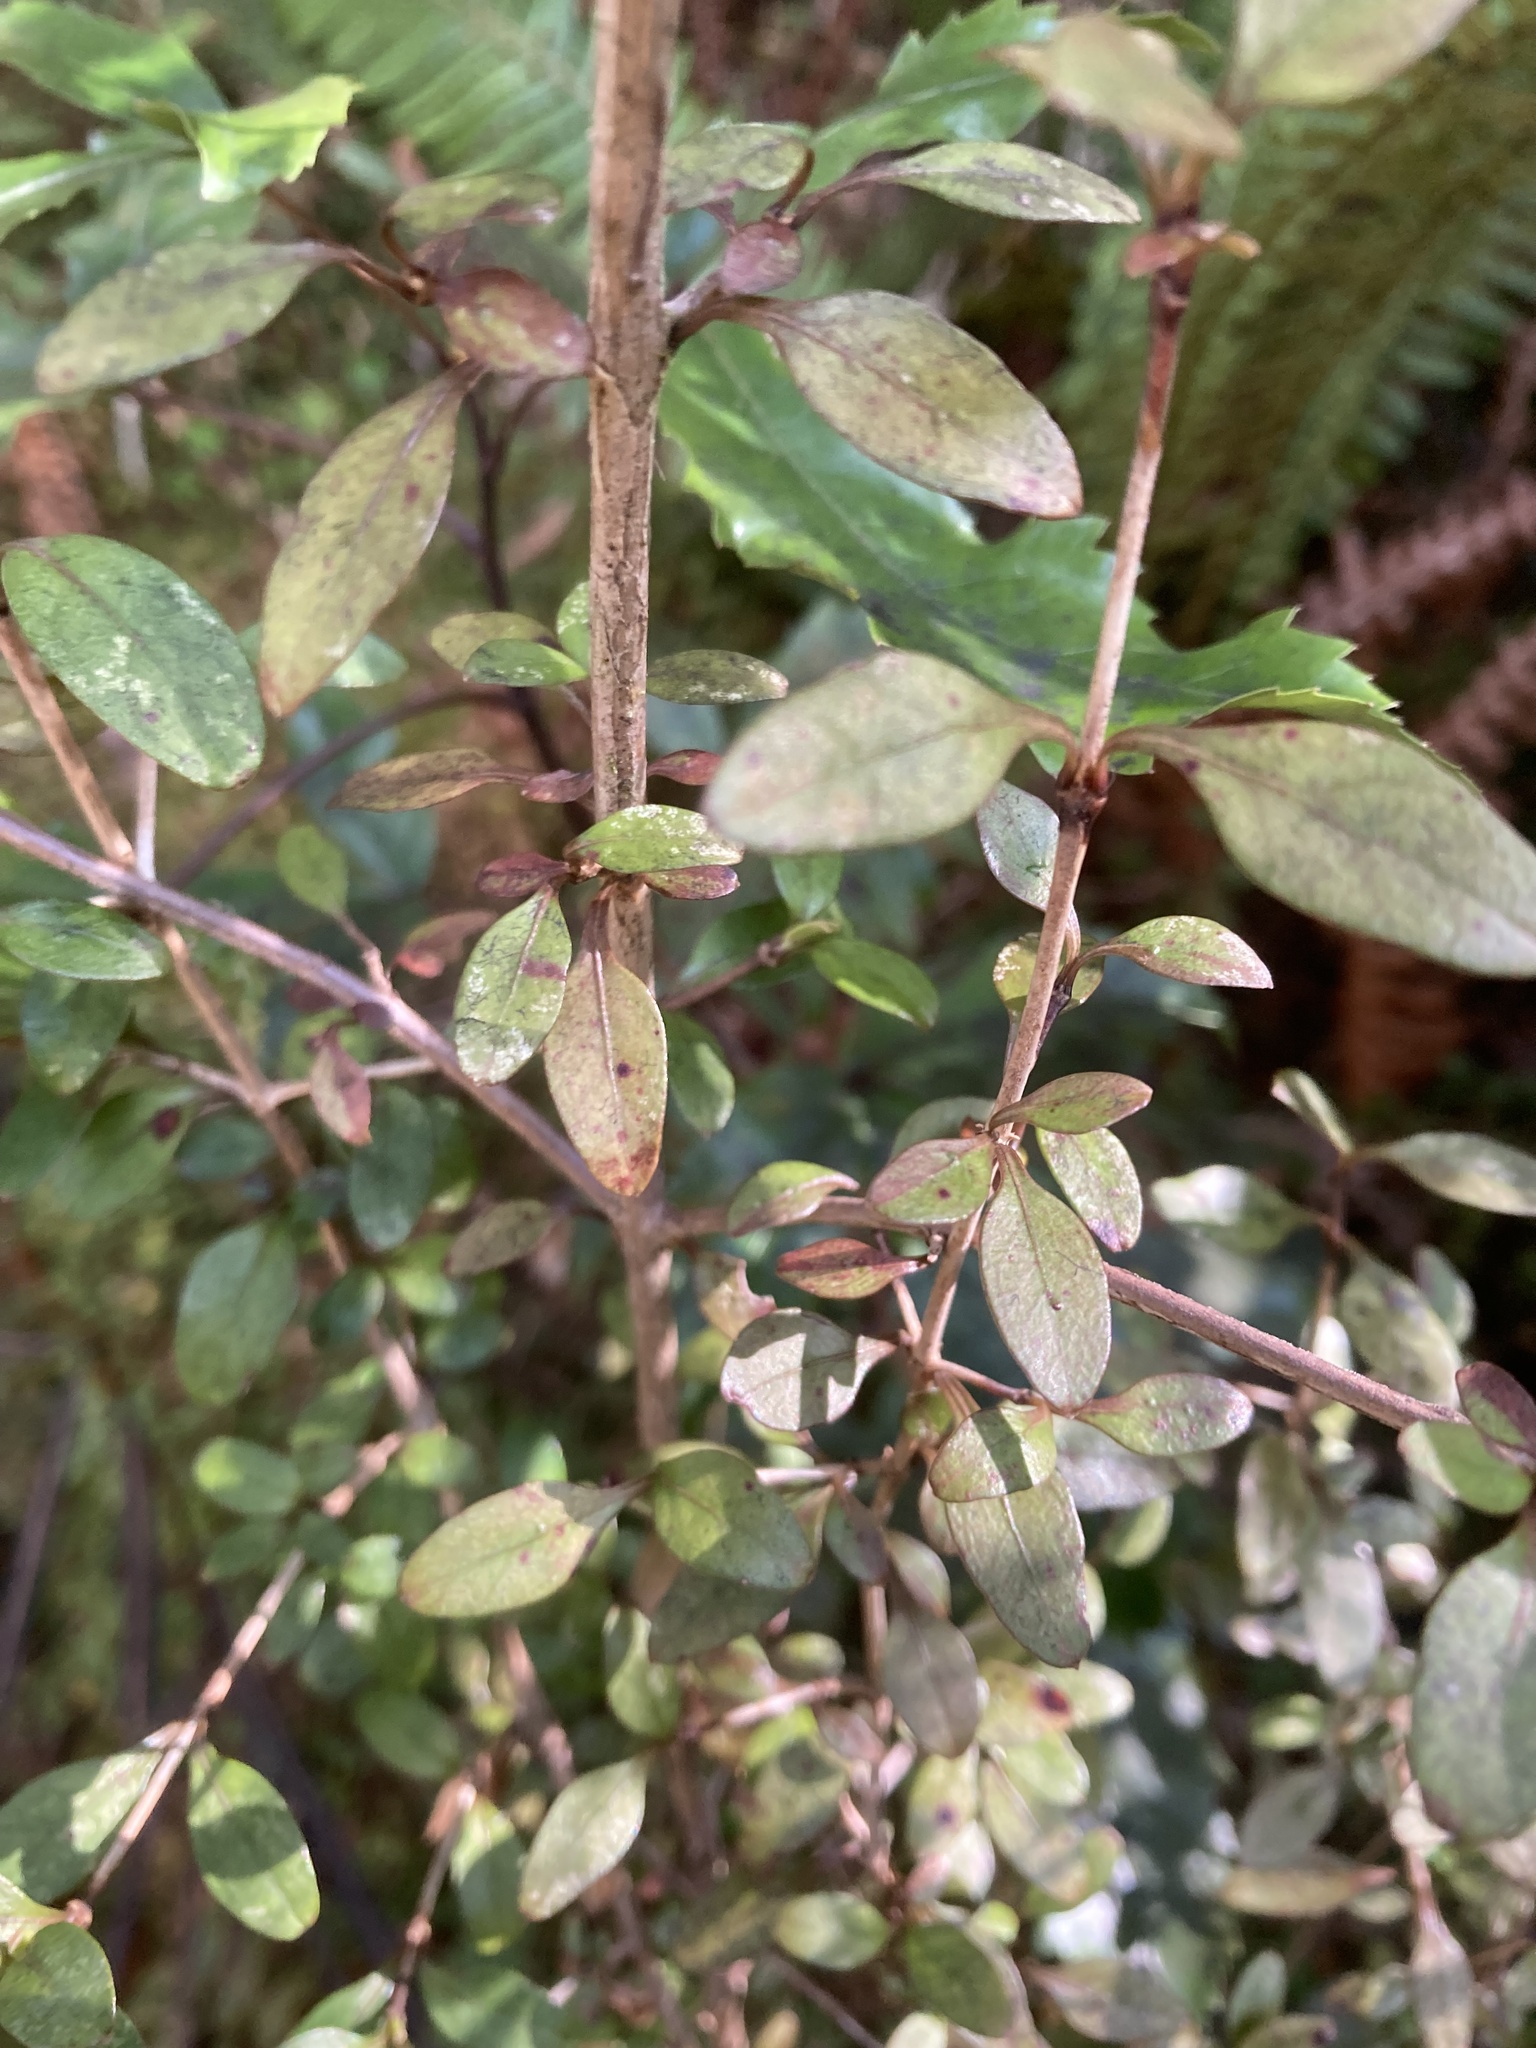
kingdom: Plantae
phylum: Tracheophyta
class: Magnoliopsida
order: Gentianales
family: Rubiaceae
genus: Coprosma
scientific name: Coprosma colensoi
